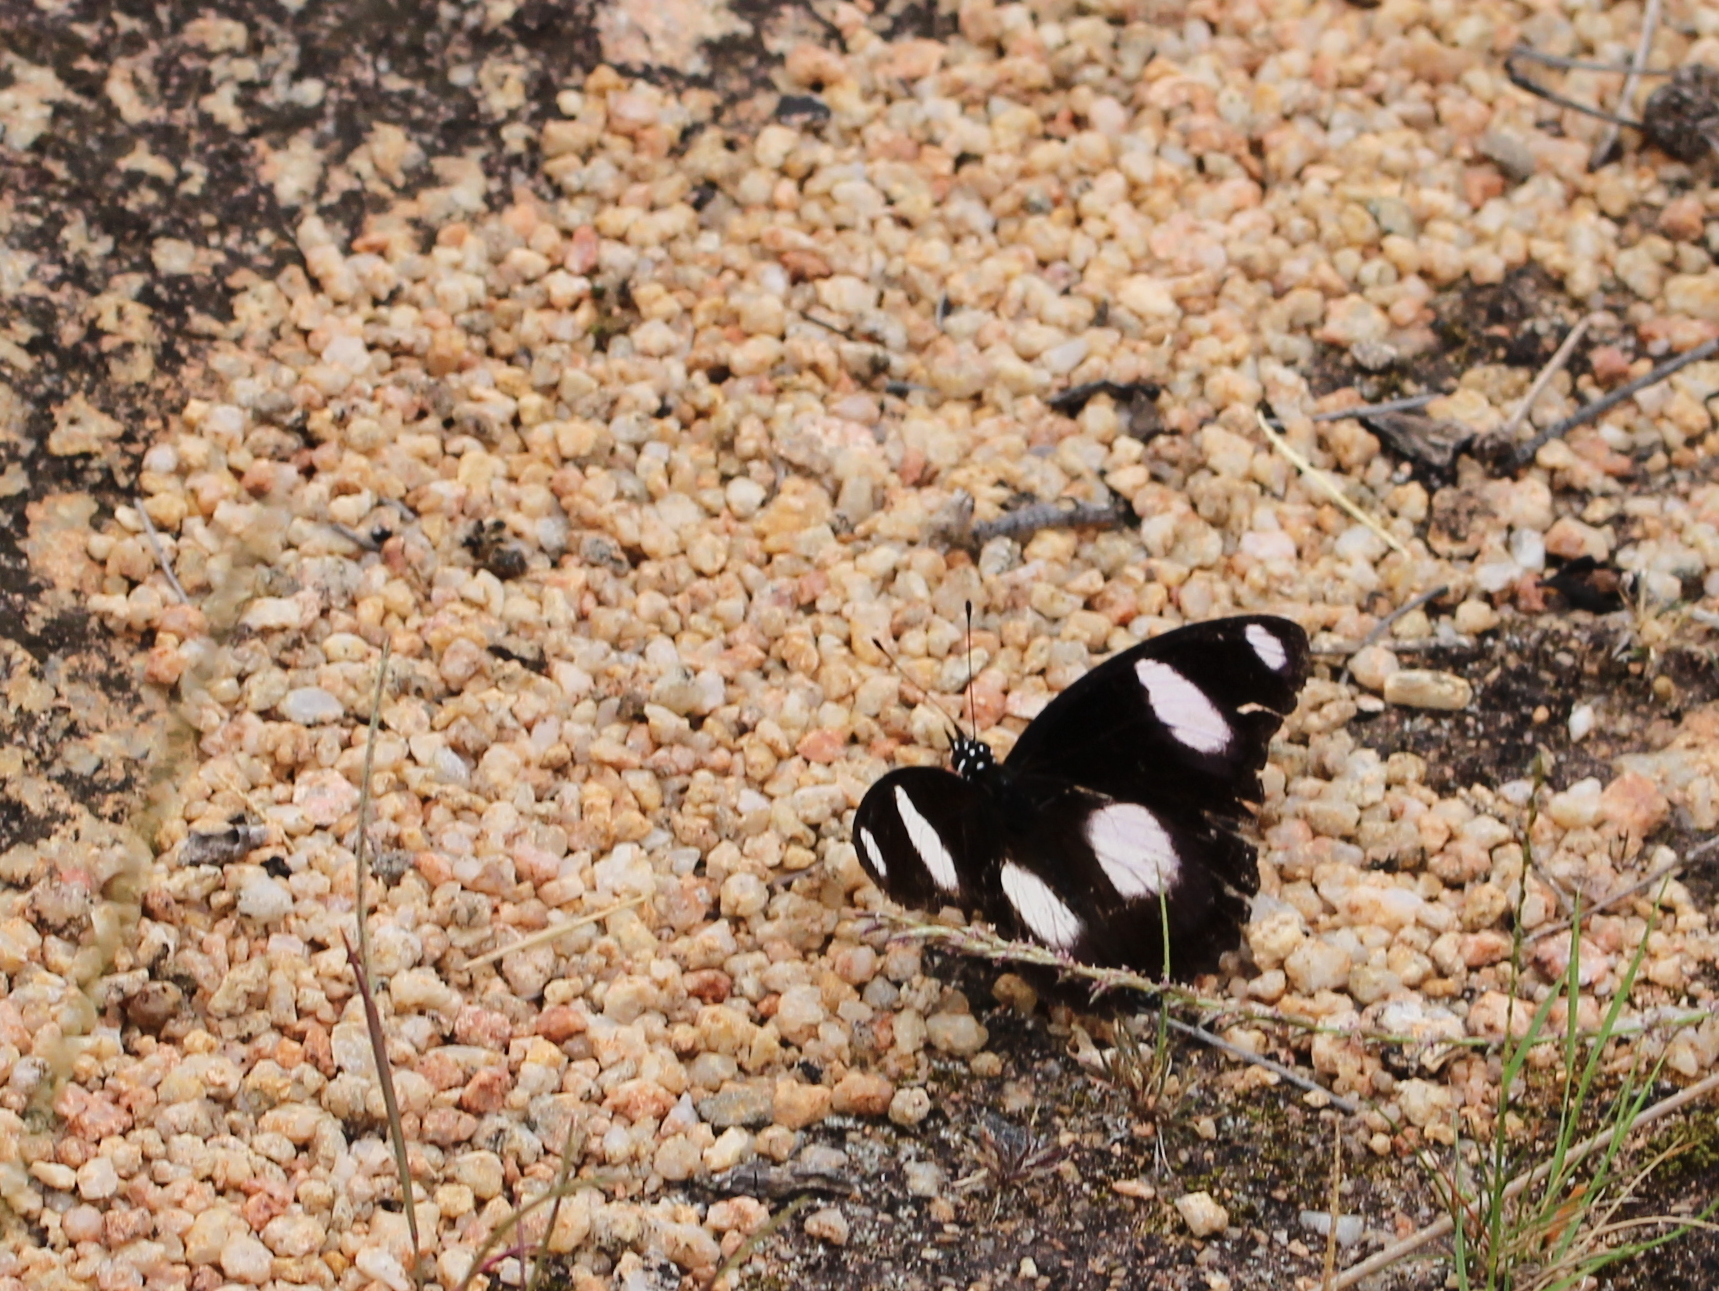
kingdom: Animalia
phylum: Arthropoda
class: Insecta
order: Lepidoptera
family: Nymphalidae
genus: Hypolimnas
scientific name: Hypolimnas misippus
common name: False plain tiger
